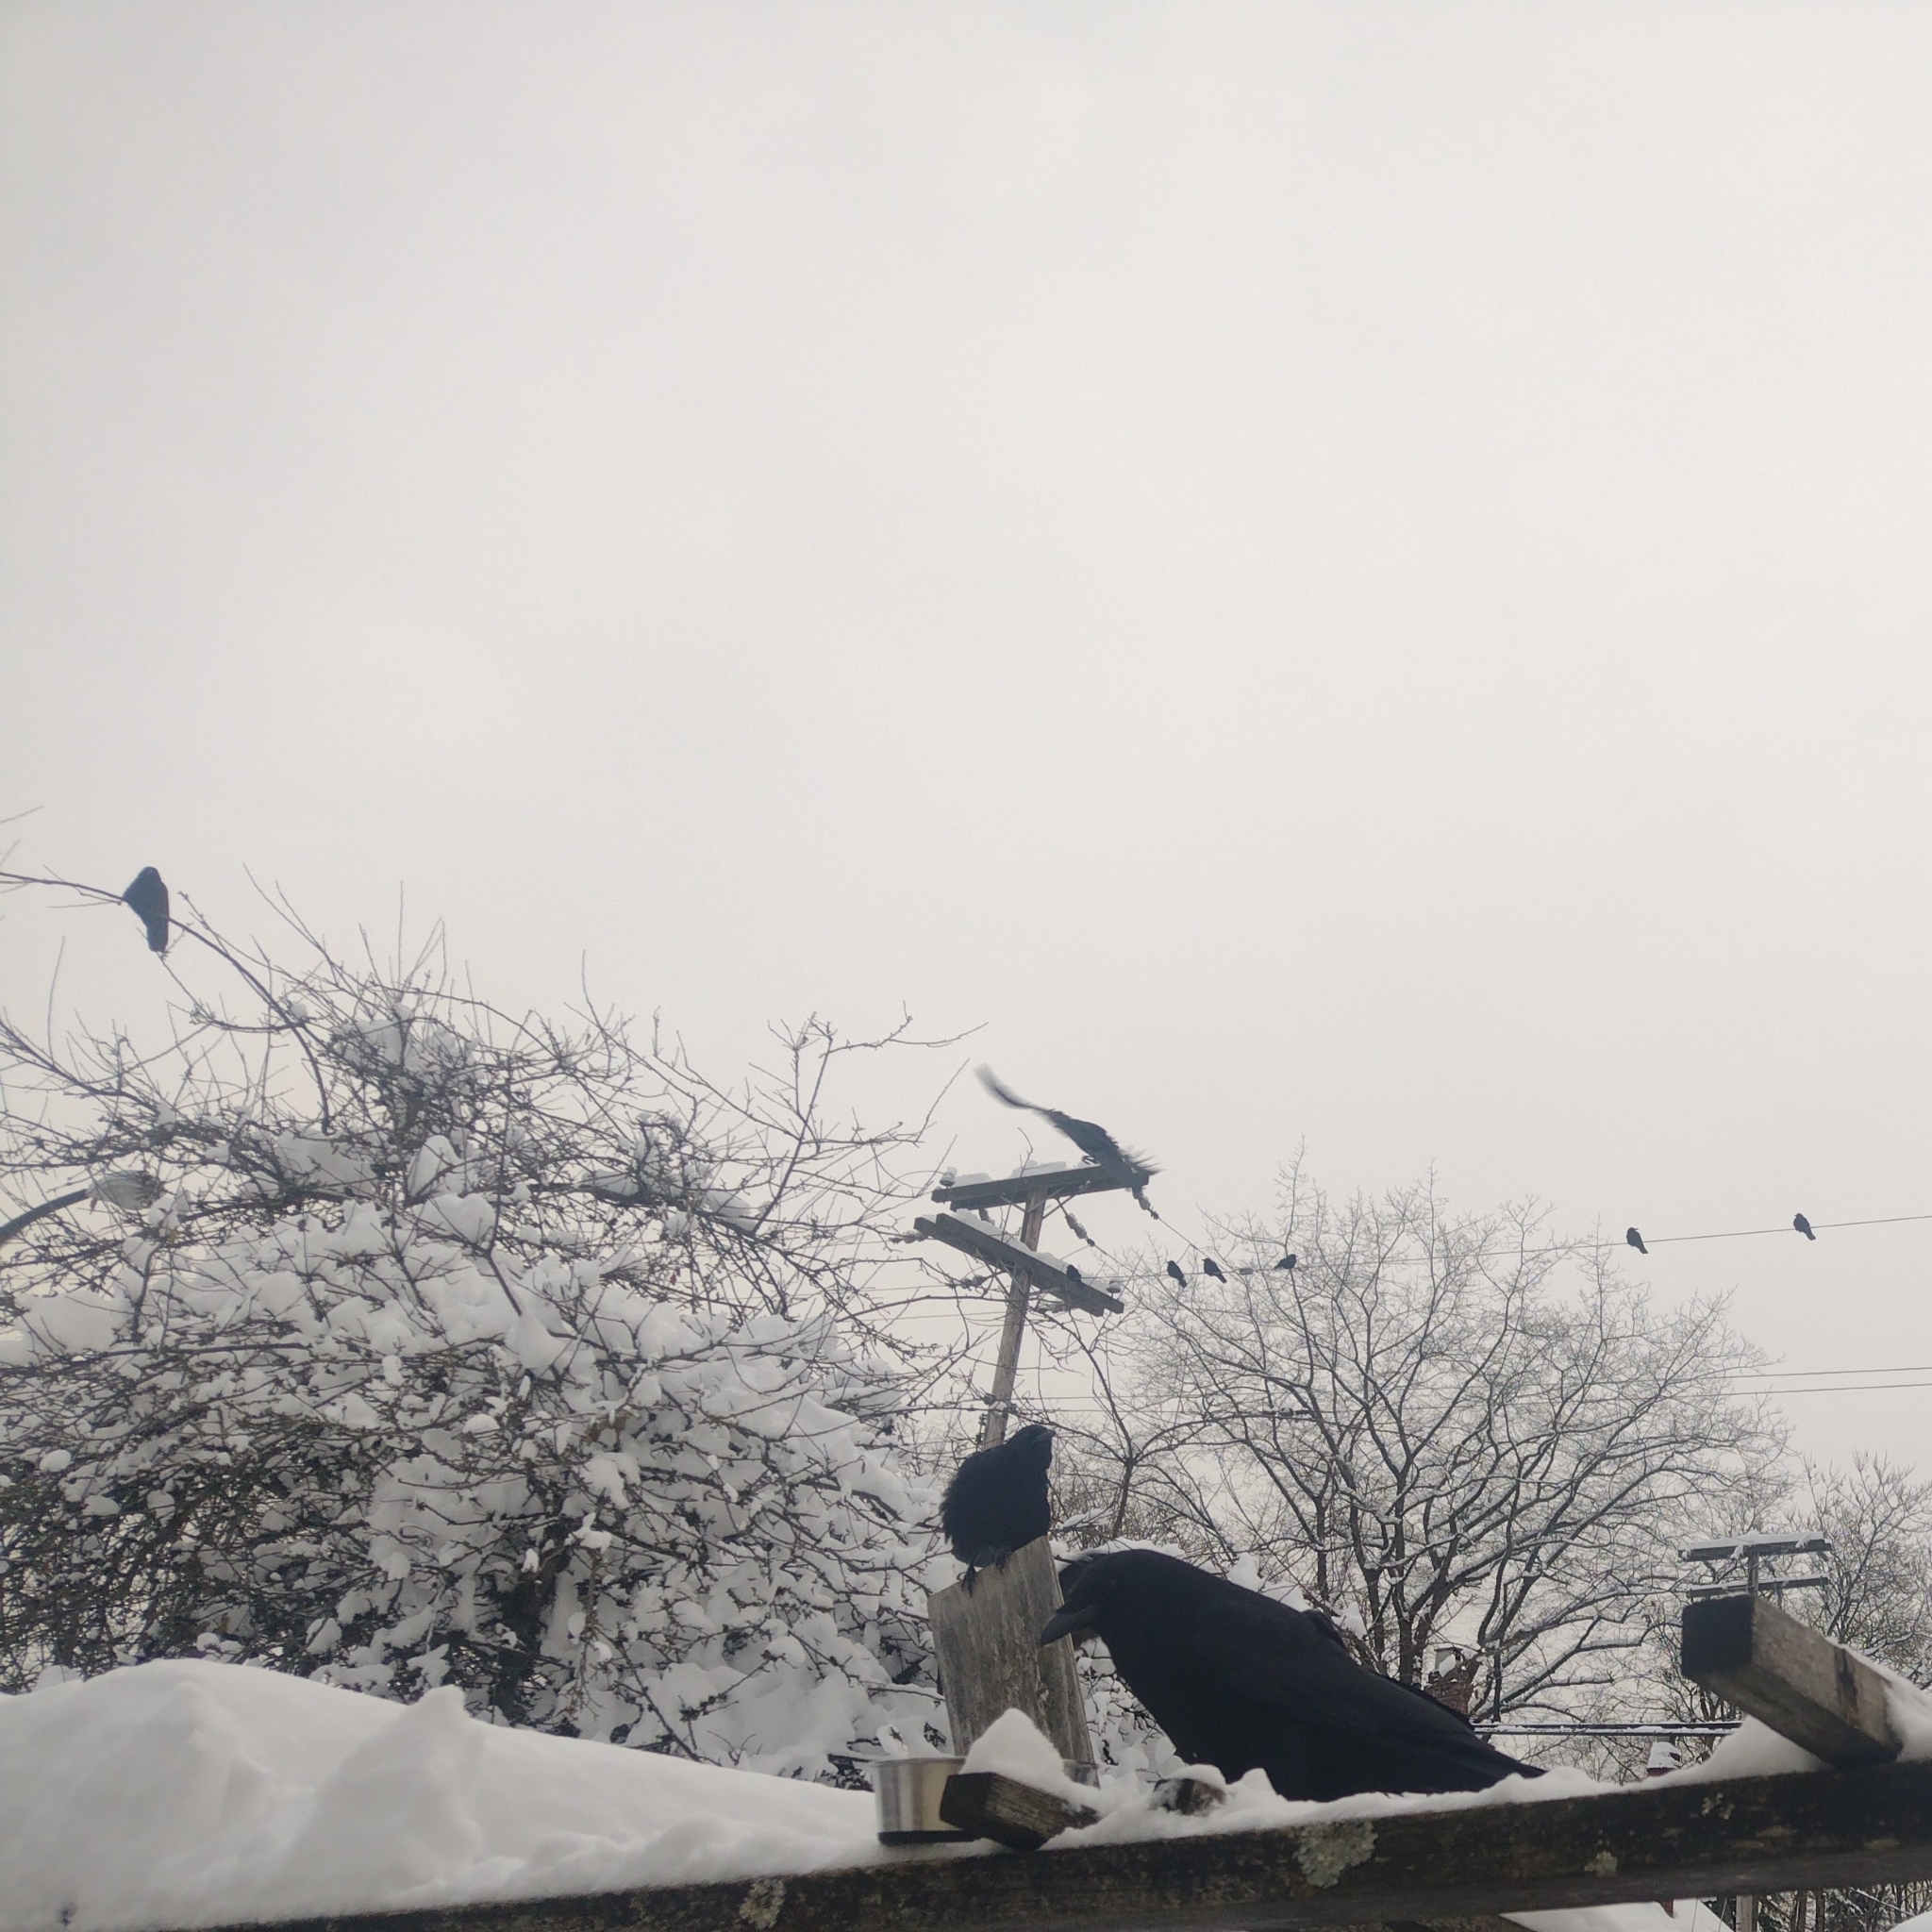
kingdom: Animalia
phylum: Chordata
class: Aves
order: Passeriformes
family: Corvidae
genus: Corvus
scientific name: Corvus brachyrhynchos
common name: American crow
